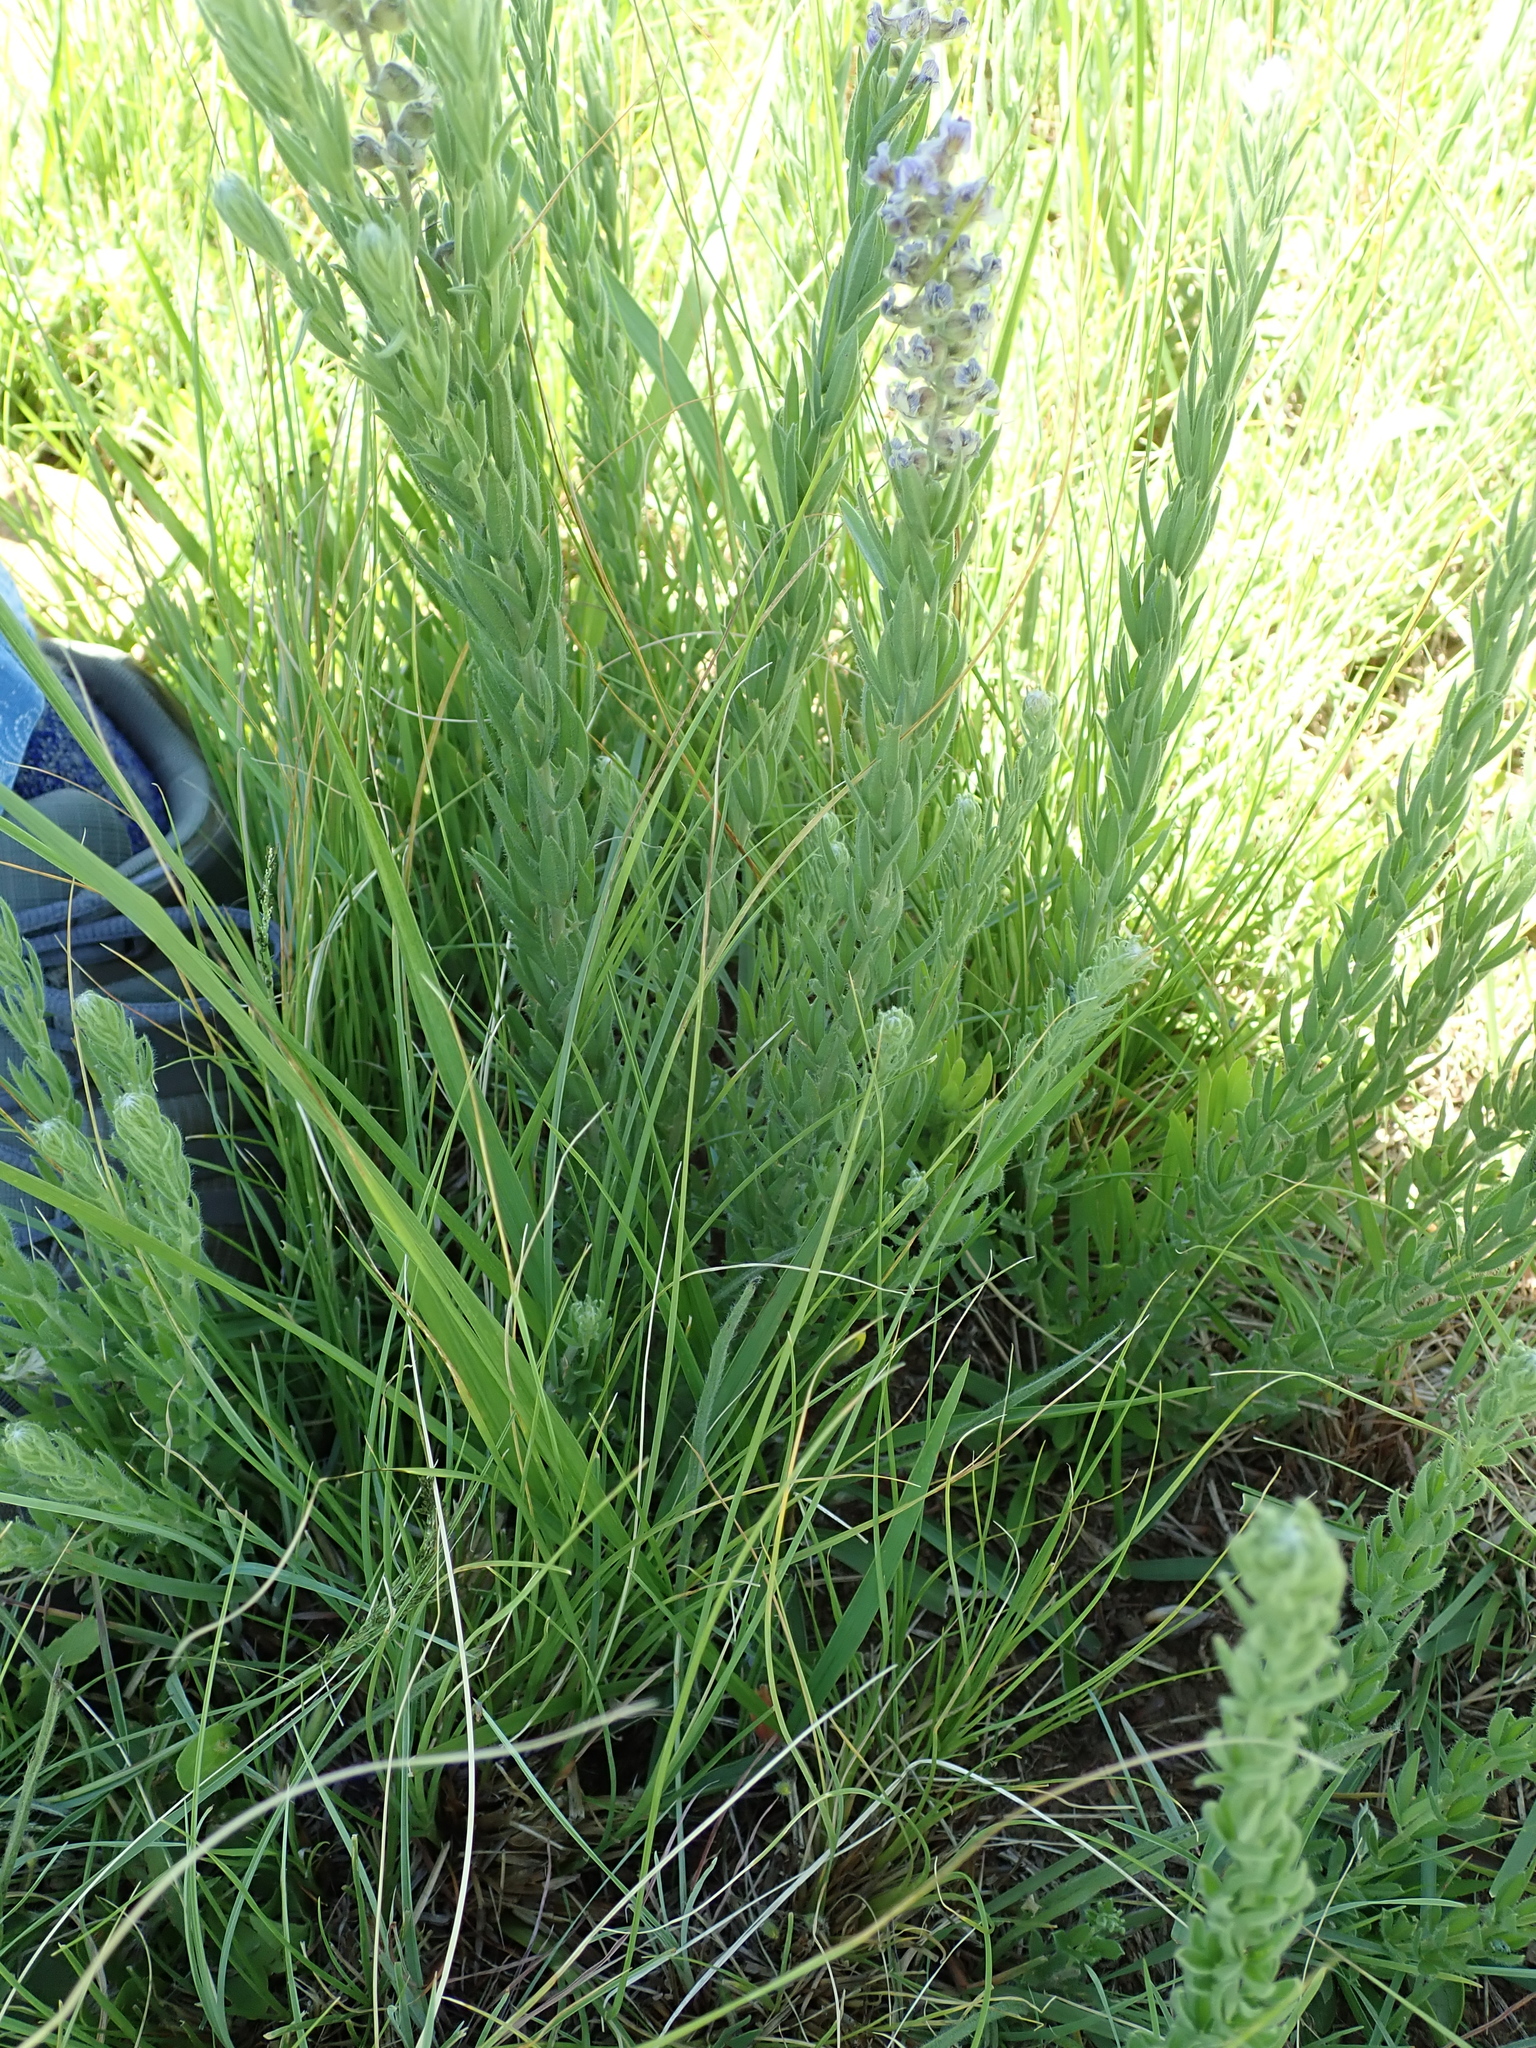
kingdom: Plantae
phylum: Tracheophyta
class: Magnoliopsida
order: Fabales
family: Fabaceae
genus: Lotononis
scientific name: Lotononis amajubica
